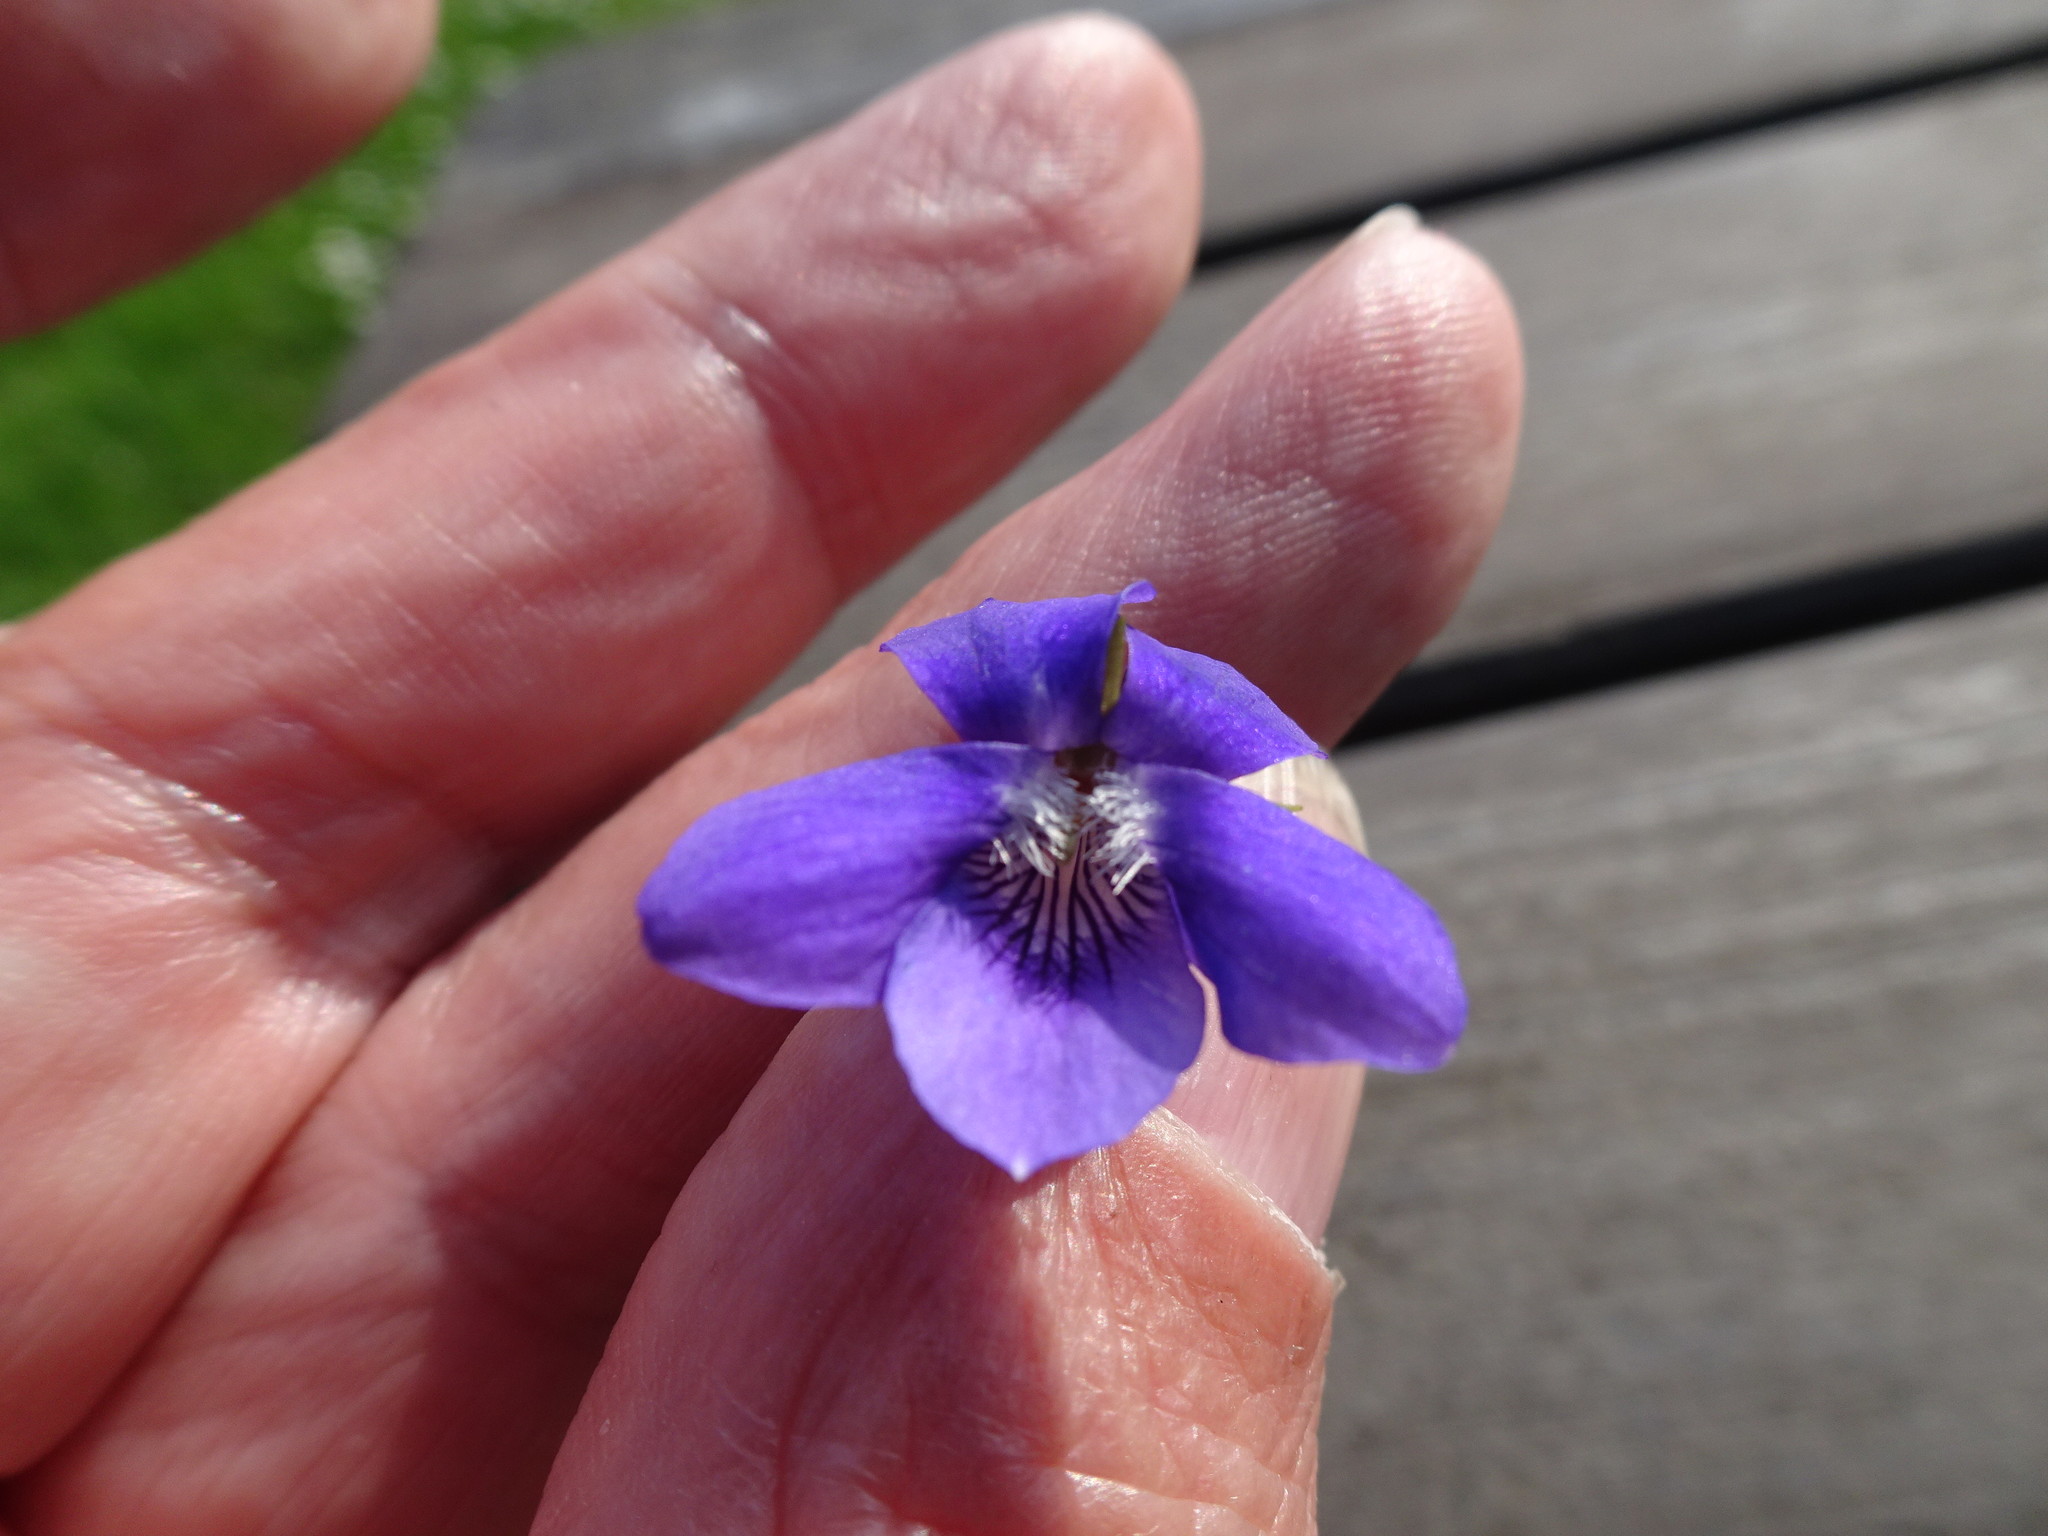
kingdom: Plantae
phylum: Tracheophyta
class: Magnoliopsida
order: Malpighiales
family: Violaceae
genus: Viola
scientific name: Viola riviniana
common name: Common dog-violet
